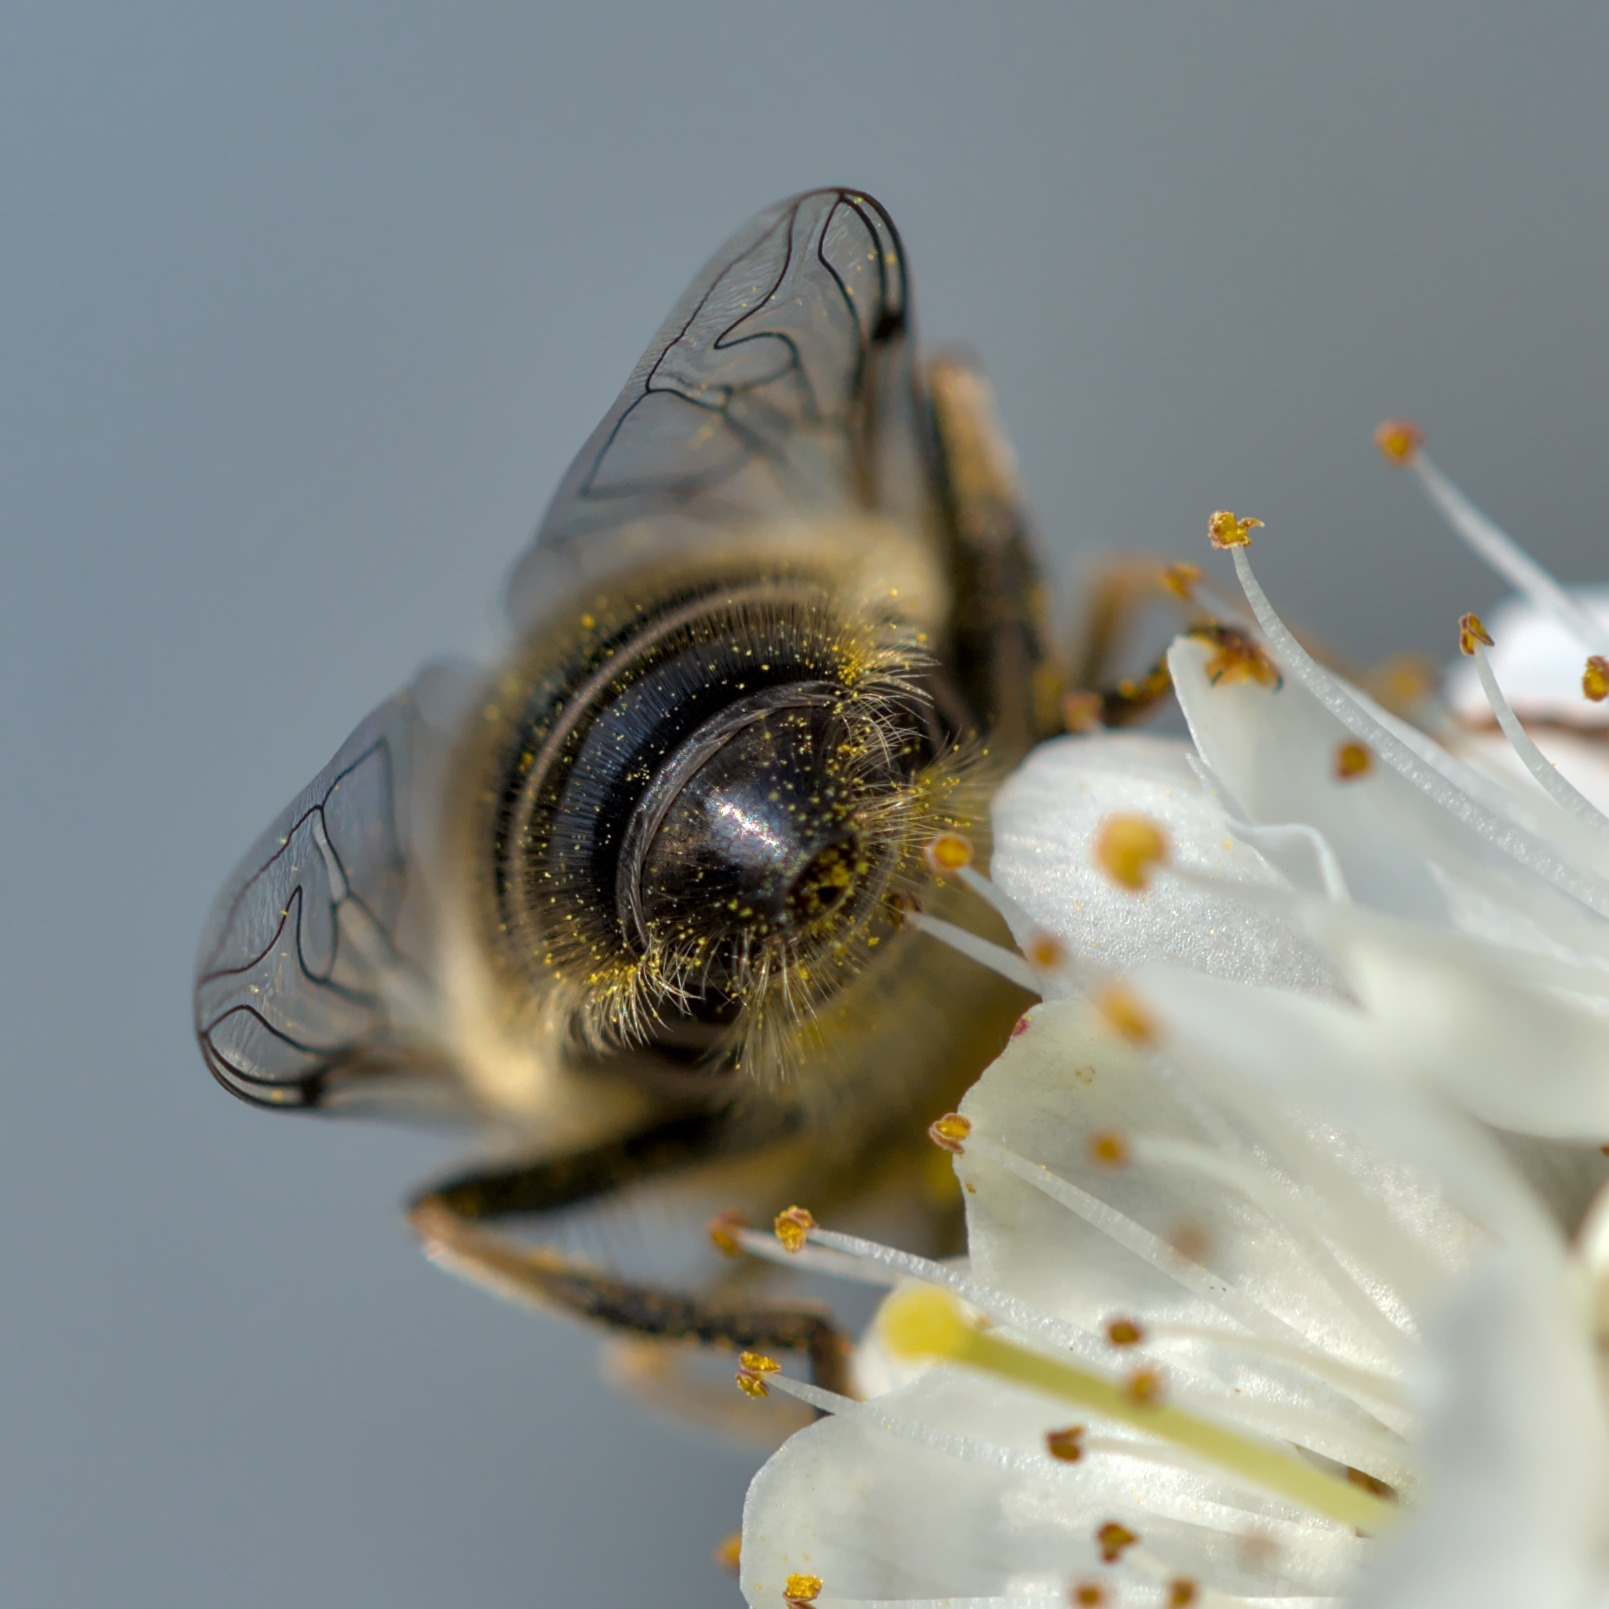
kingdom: Animalia
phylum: Arthropoda
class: Insecta
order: Diptera
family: Syrphidae
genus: Eristalis
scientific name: Eristalis pertinax
